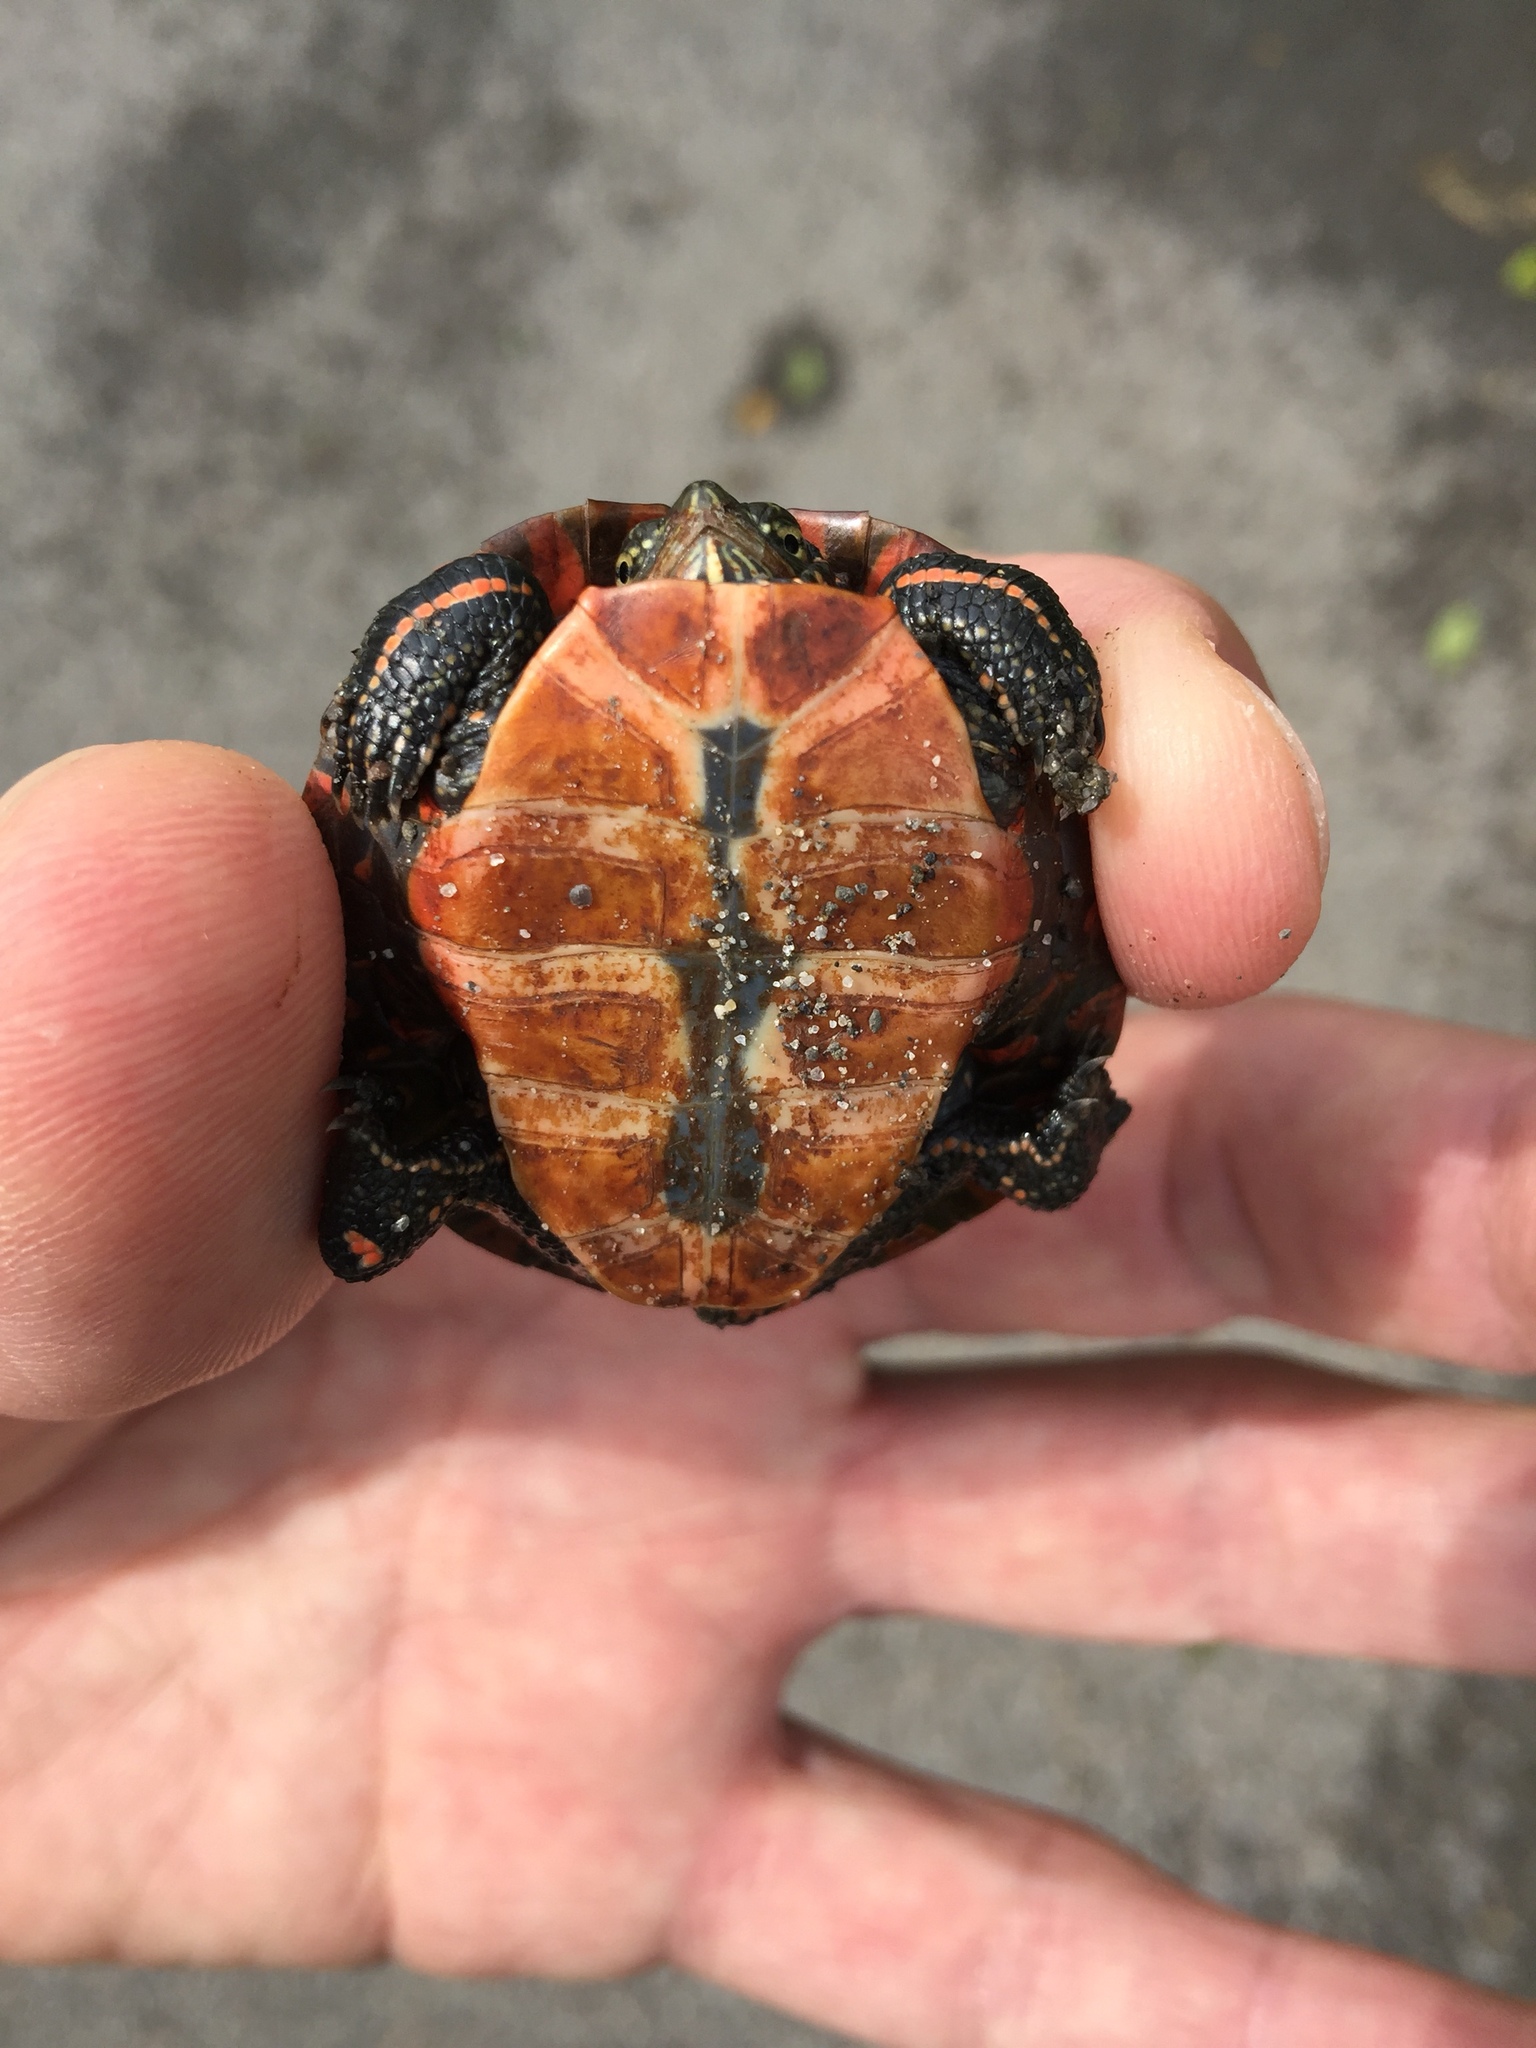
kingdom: Animalia
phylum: Chordata
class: Testudines
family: Emydidae
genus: Chrysemys
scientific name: Chrysemys picta
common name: Painted turtle
